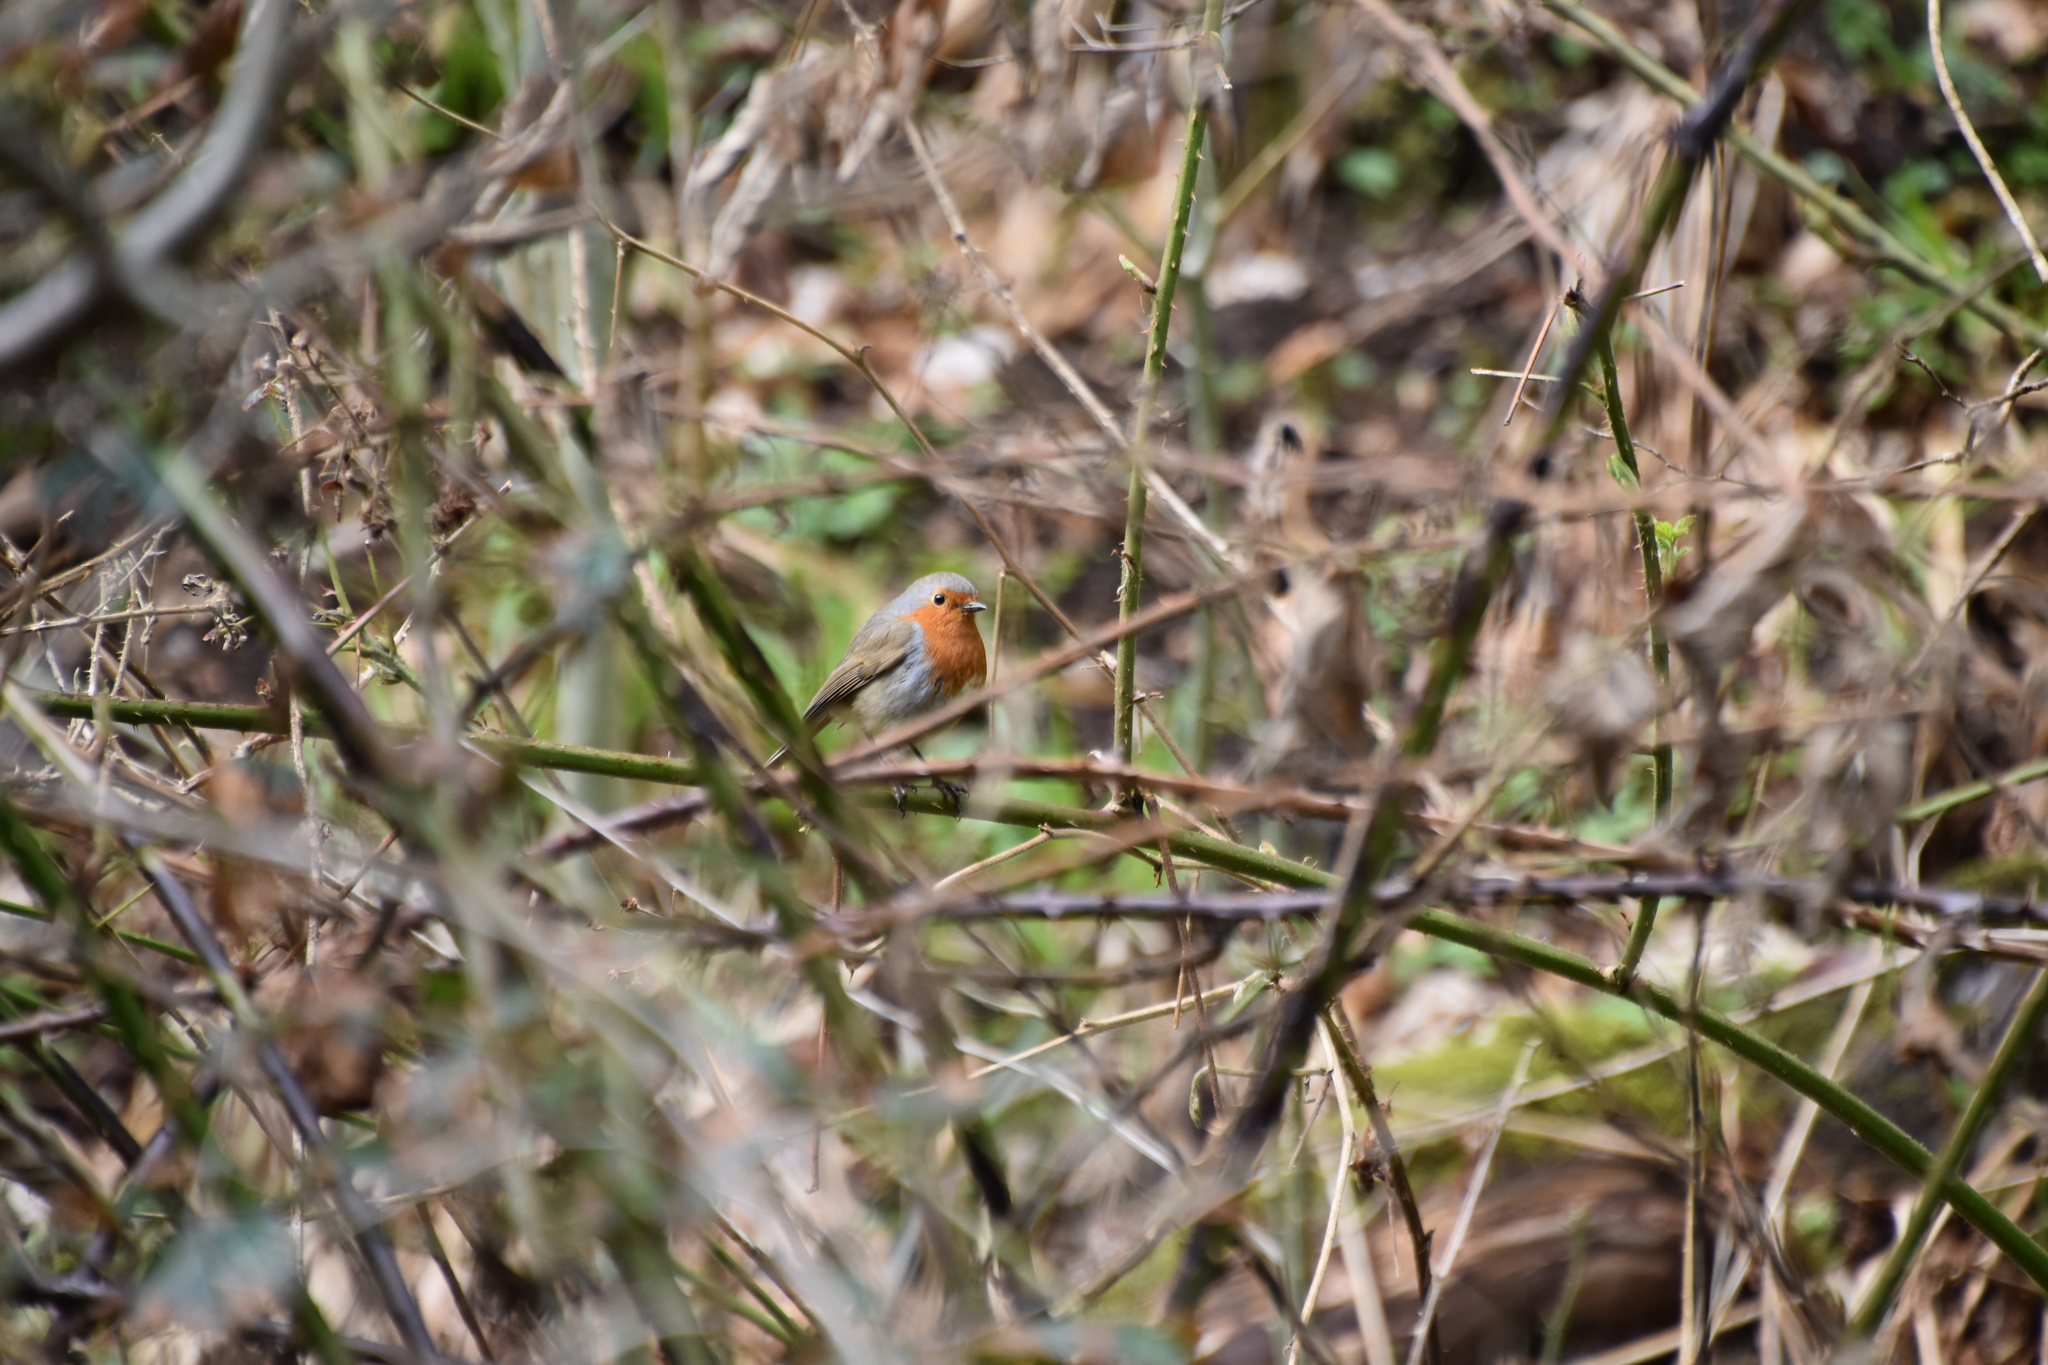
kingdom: Animalia
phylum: Chordata
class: Aves
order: Passeriformes
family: Muscicapidae
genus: Erithacus
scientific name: Erithacus rubecula
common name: European robin
